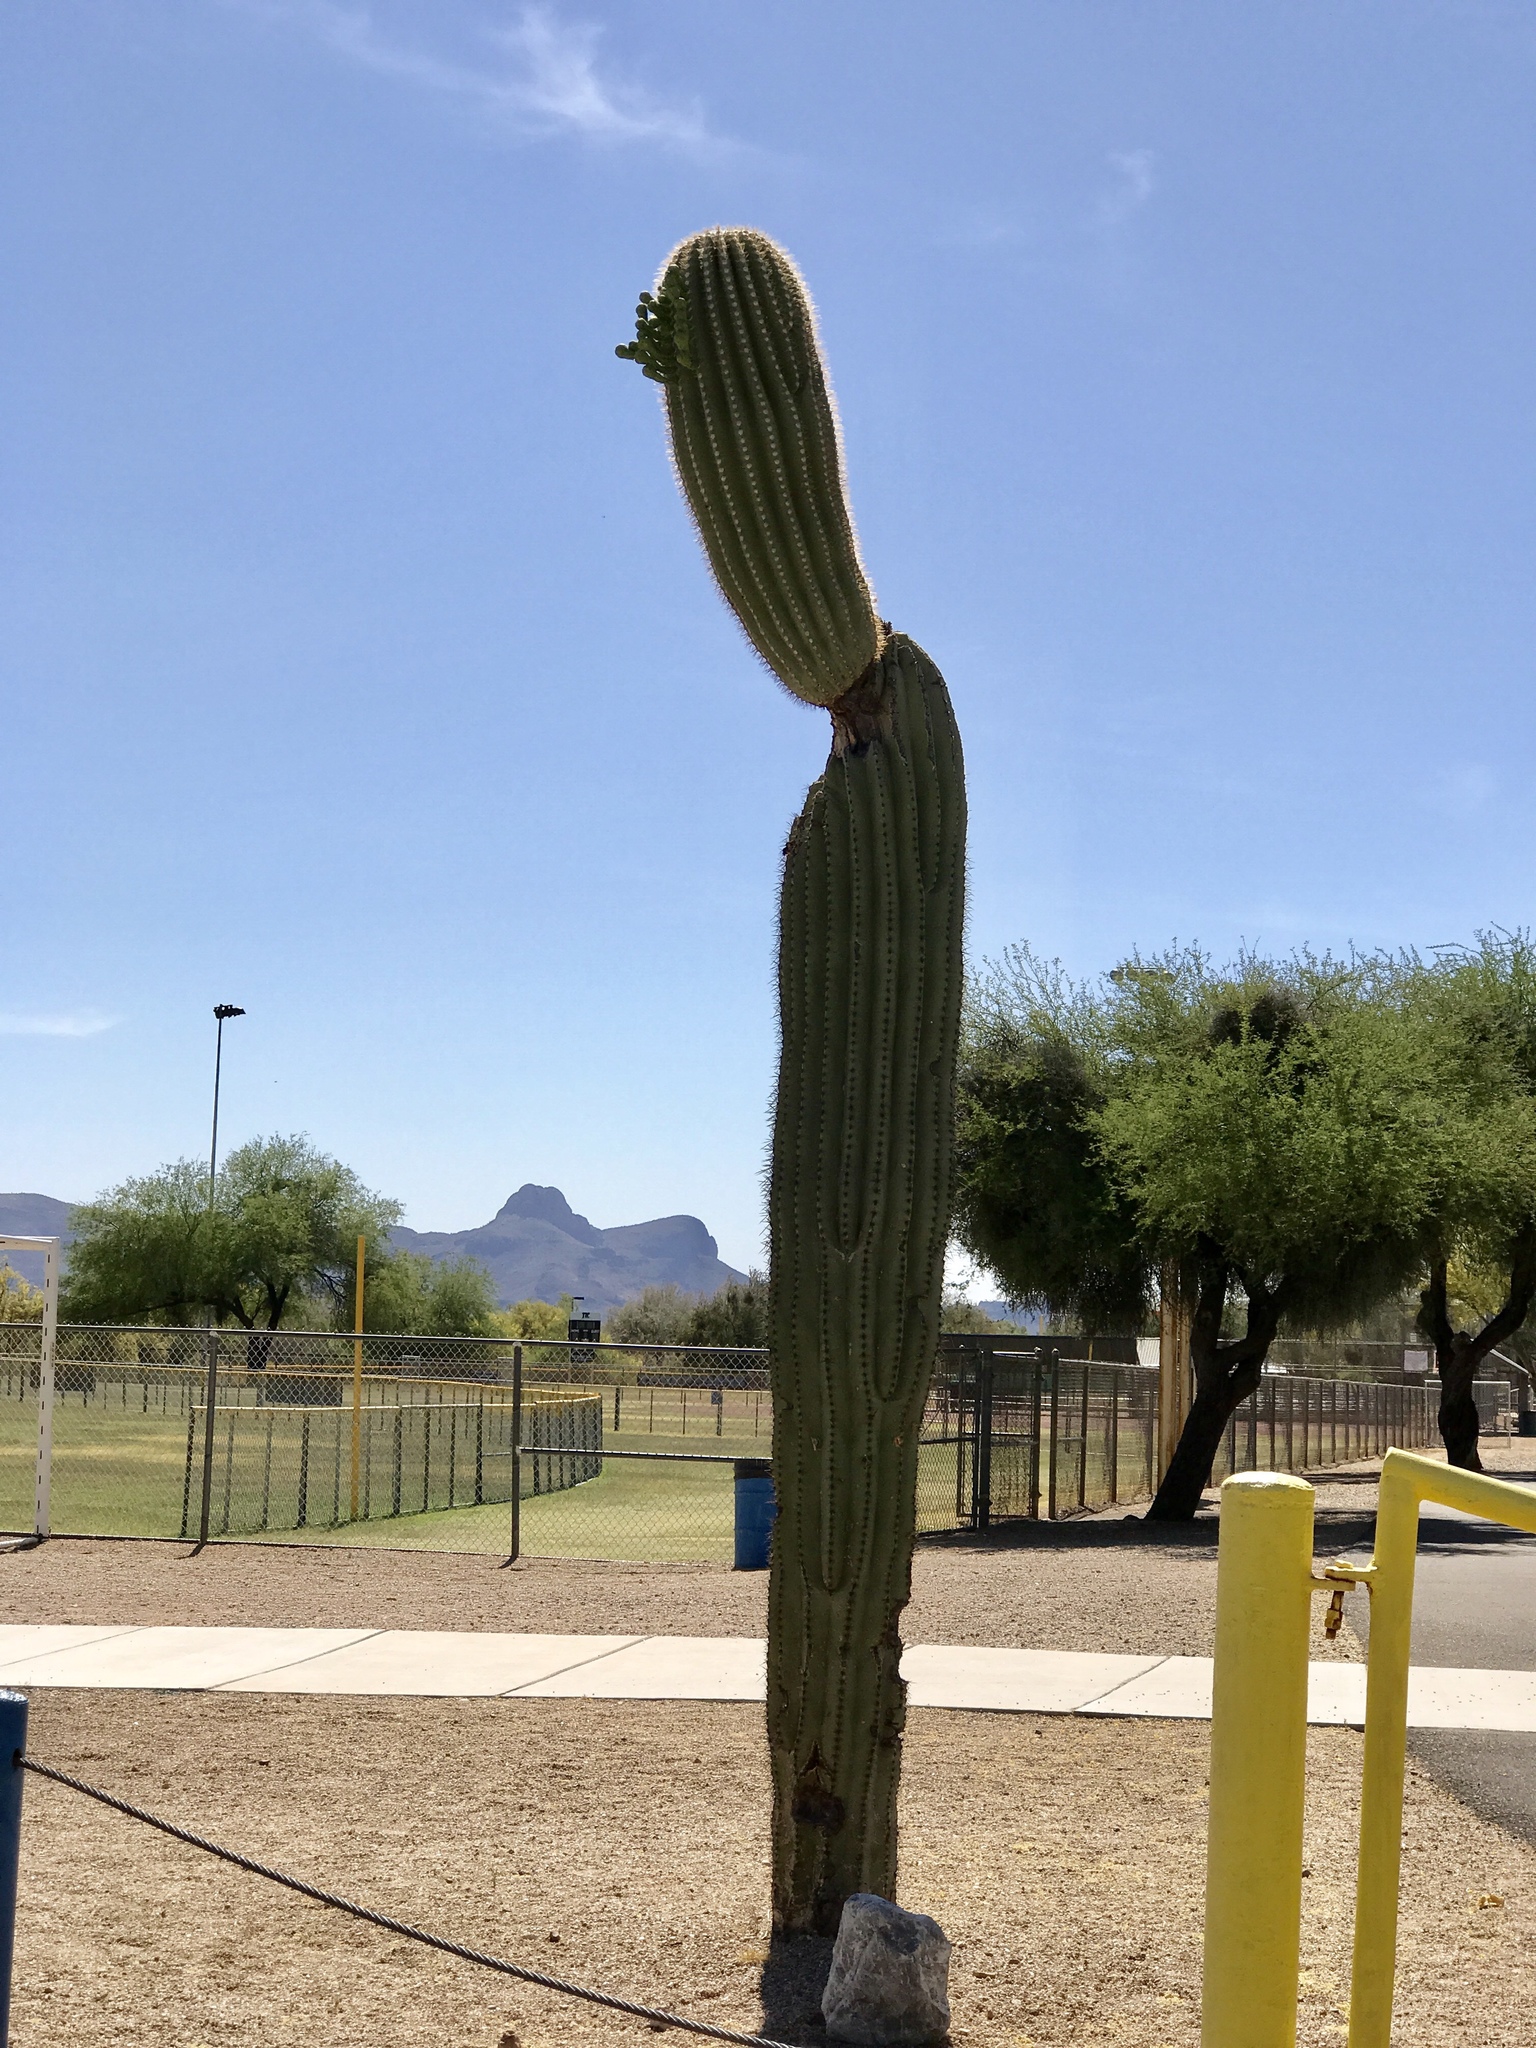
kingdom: Plantae
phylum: Tracheophyta
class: Magnoliopsida
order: Caryophyllales
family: Cactaceae
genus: Carnegiea
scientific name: Carnegiea gigantea
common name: Saguaro
